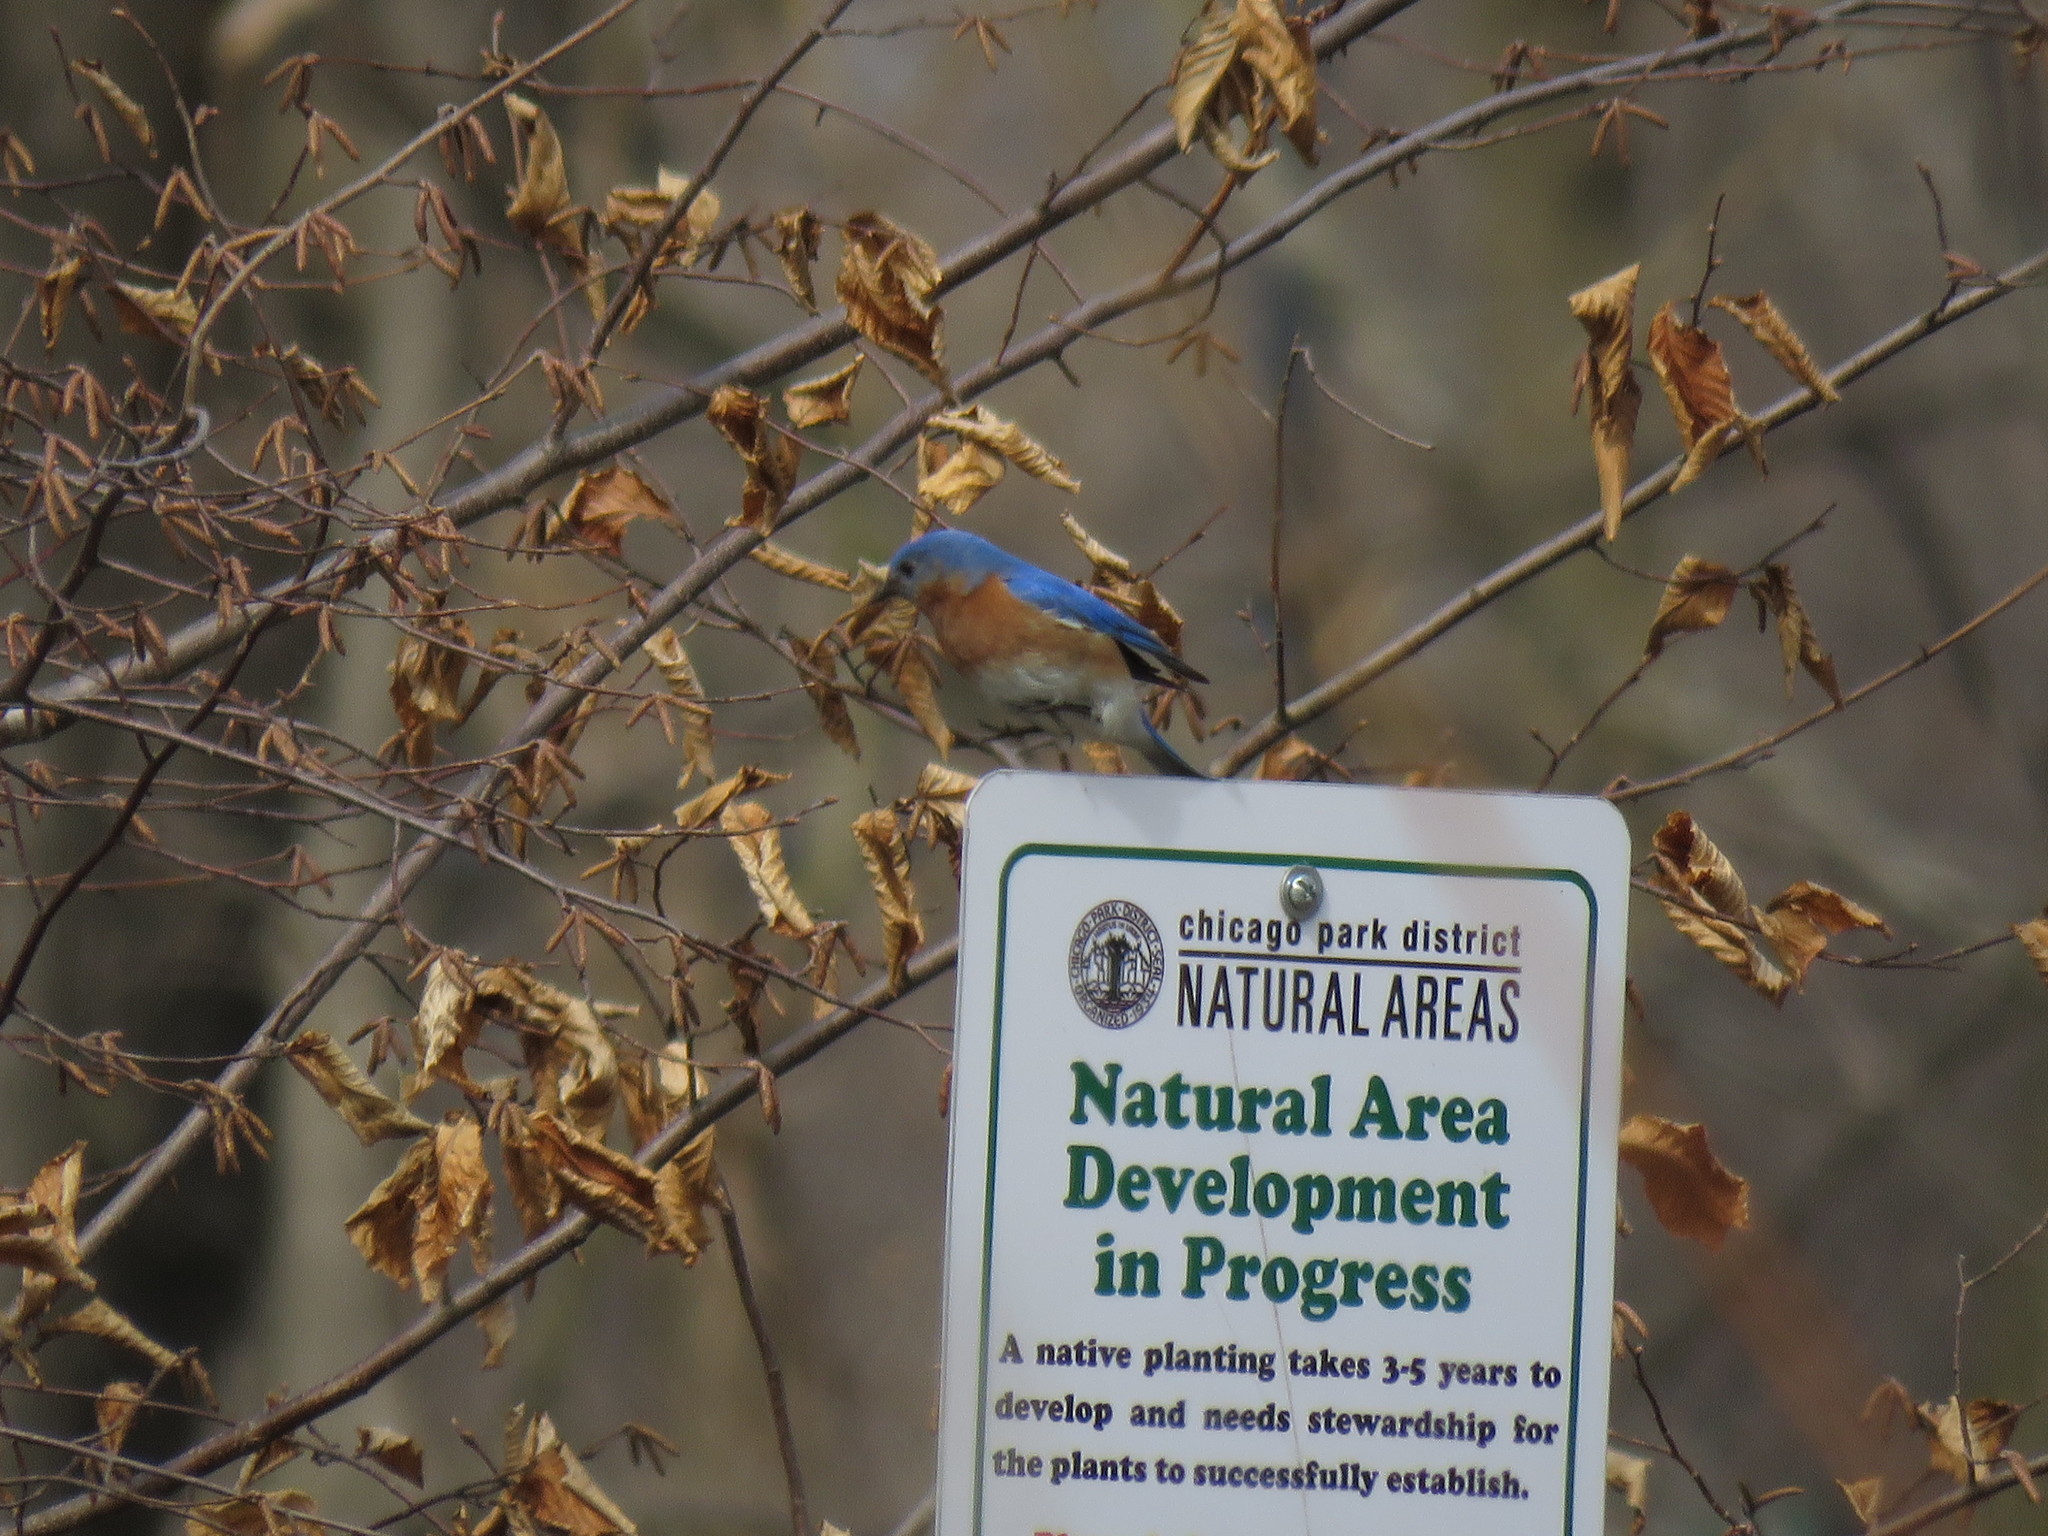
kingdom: Animalia
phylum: Chordata
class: Aves
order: Passeriformes
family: Turdidae
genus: Sialia
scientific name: Sialia sialis
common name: Eastern bluebird
